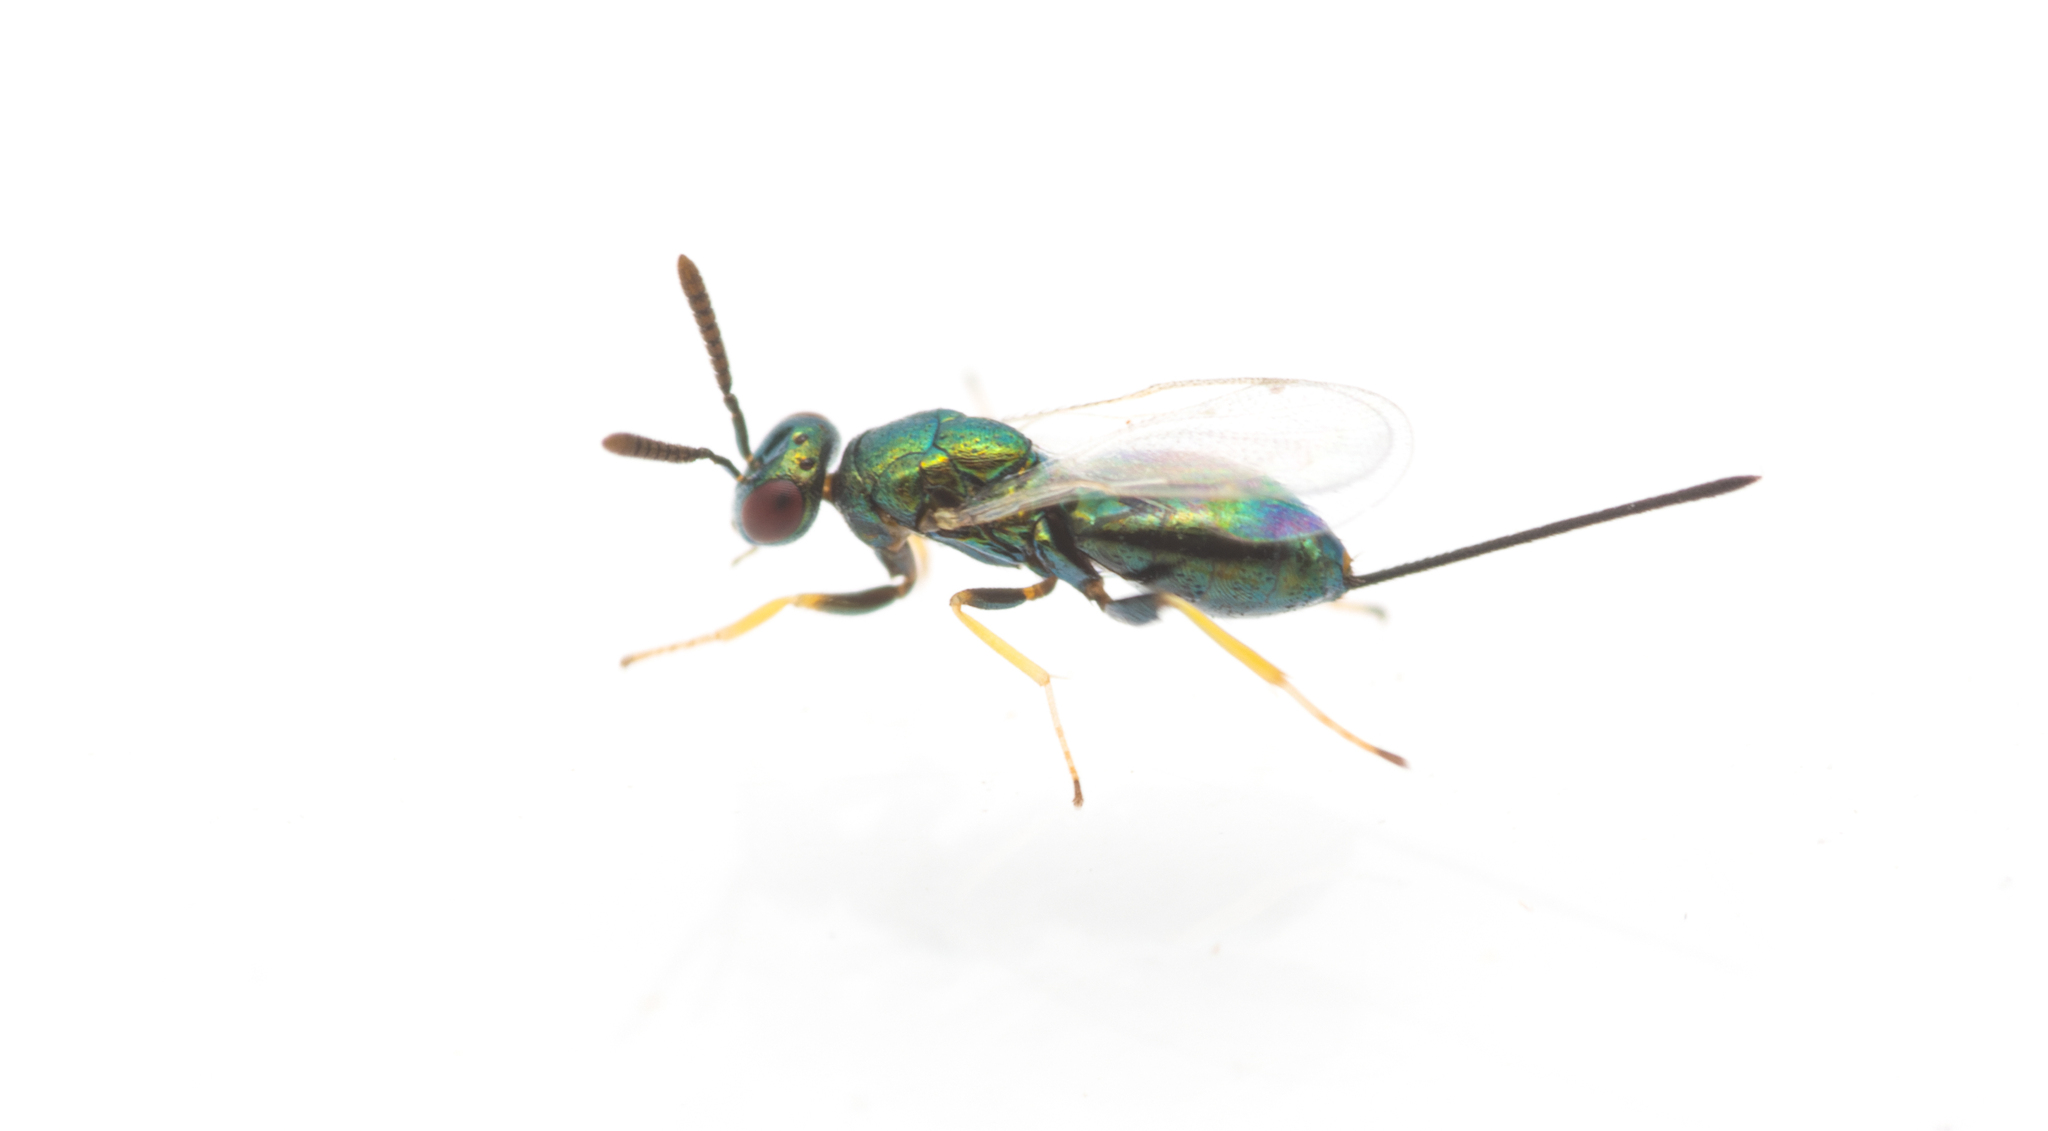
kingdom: Animalia
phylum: Arthropoda
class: Insecta
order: Hymenoptera
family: Torymidae
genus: Pseudotorymus
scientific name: Pseudotorymus sapphyrinus
